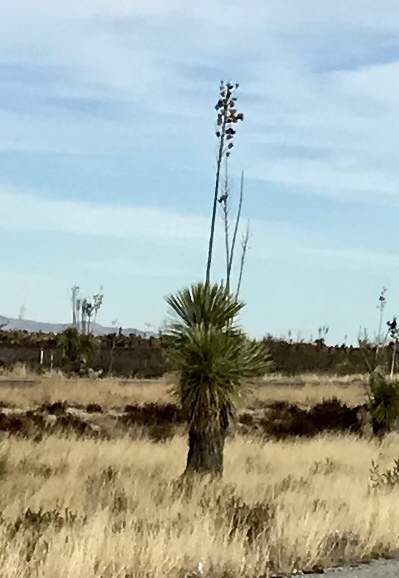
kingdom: Plantae
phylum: Tracheophyta
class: Liliopsida
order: Asparagales
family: Asparagaceae
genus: Yucca
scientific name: Yucca elata
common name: Palmella
